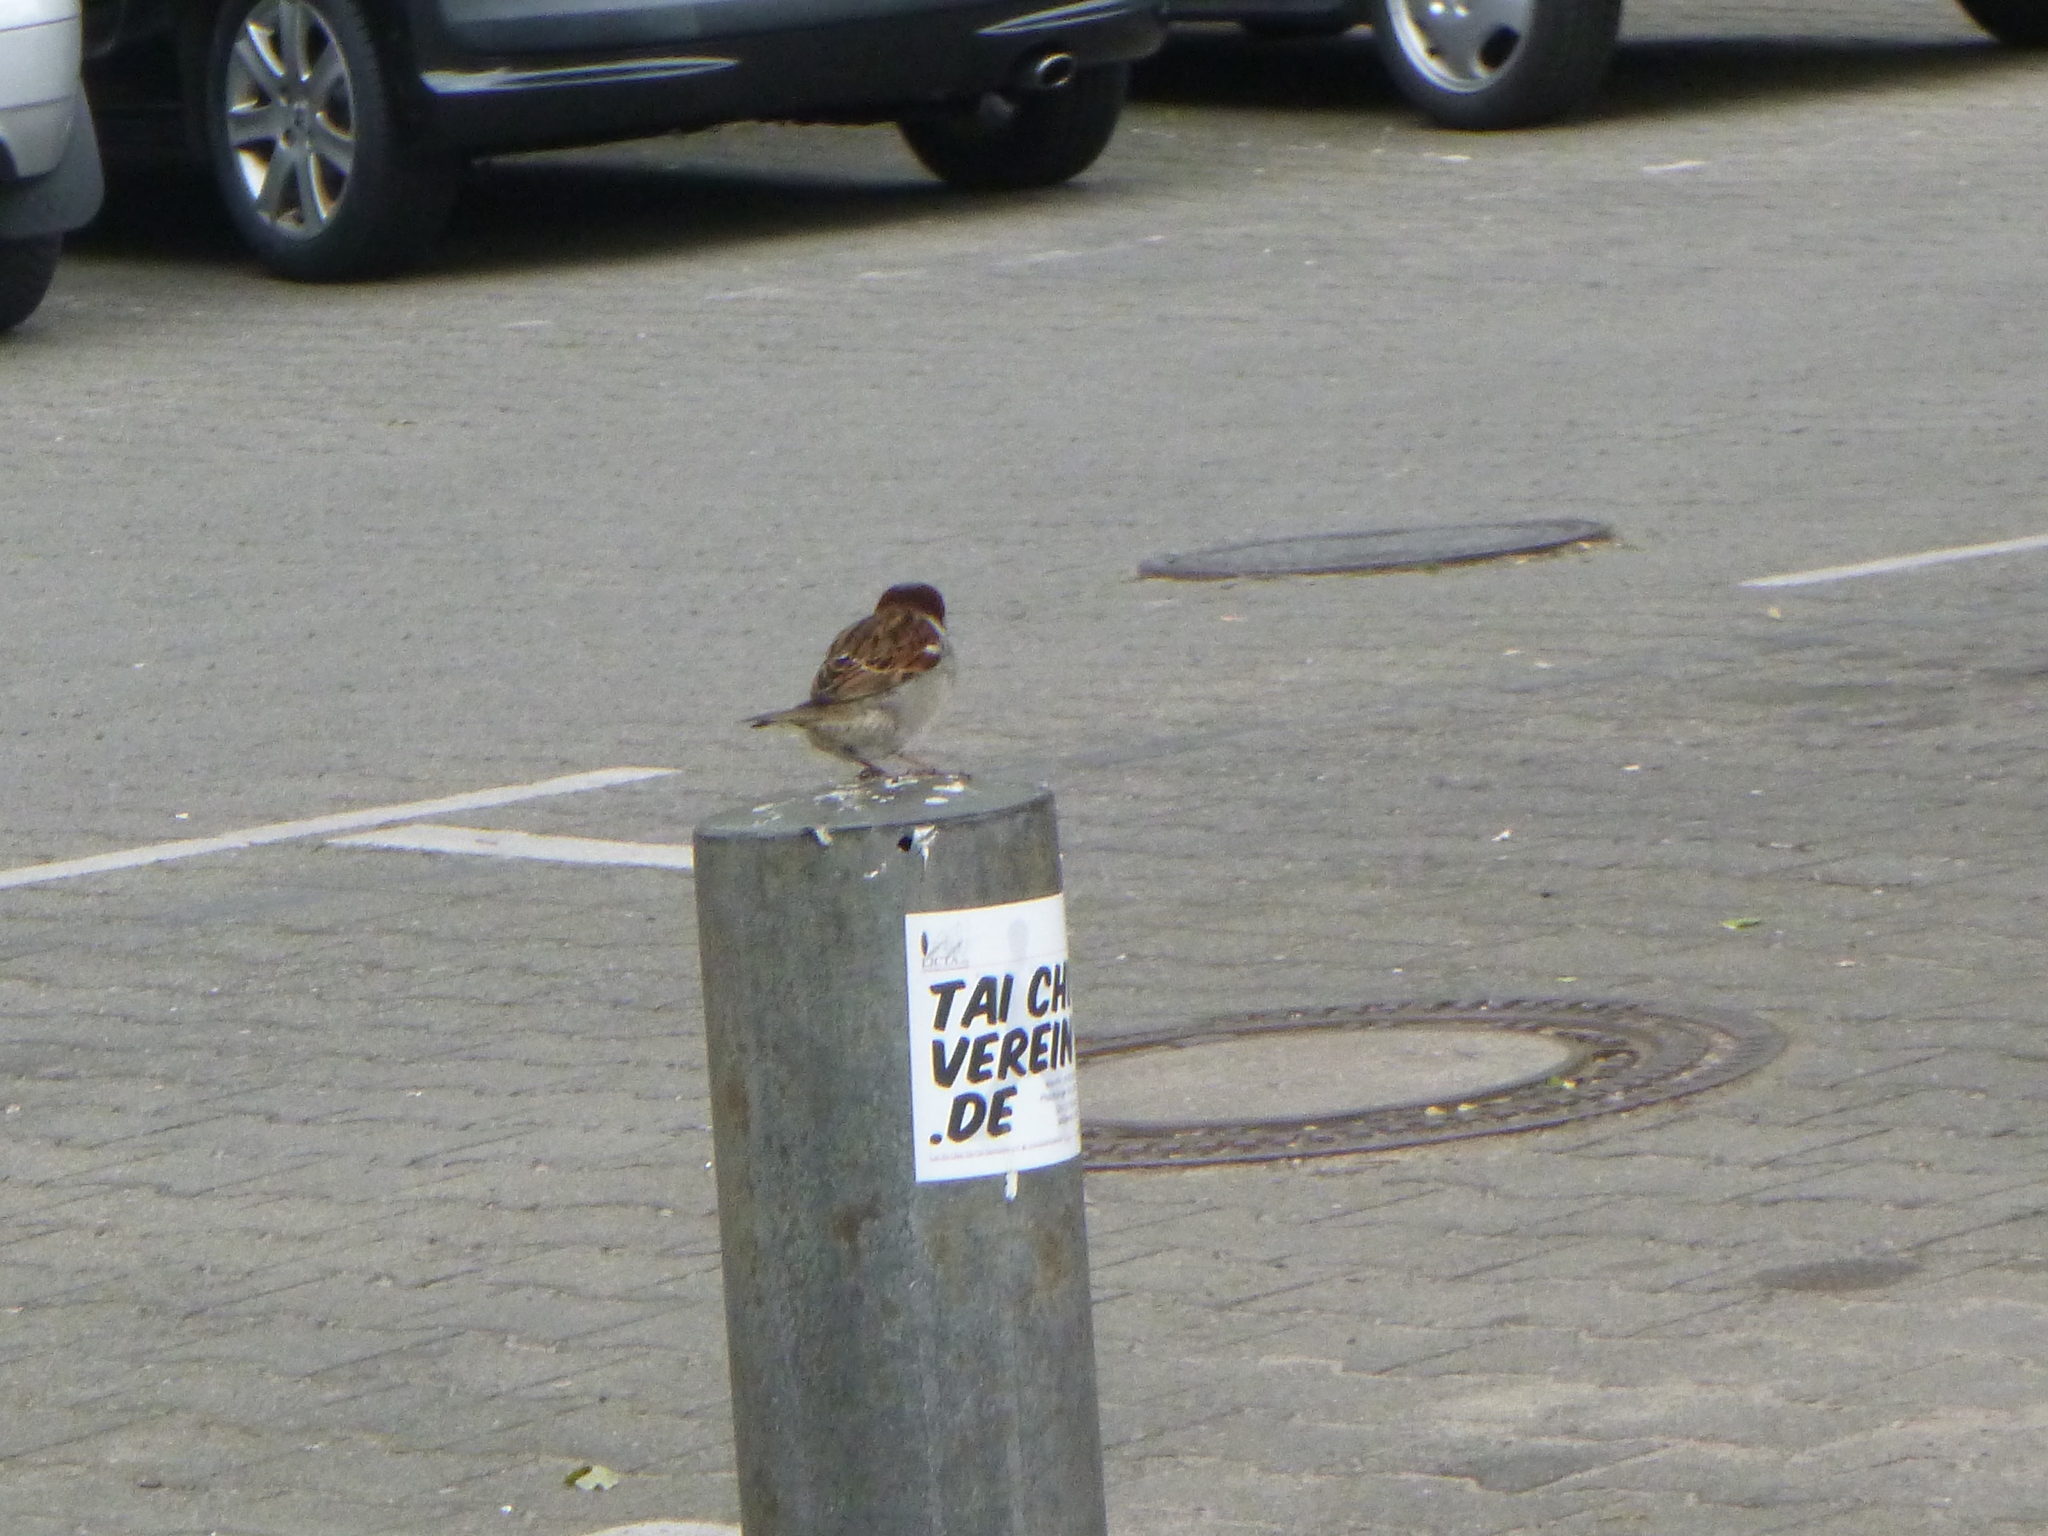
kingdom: Animalia
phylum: Chordata
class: Aves
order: Passeriformes
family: Passeridae
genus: Passer
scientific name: Passer domesticus
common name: House sparrow
